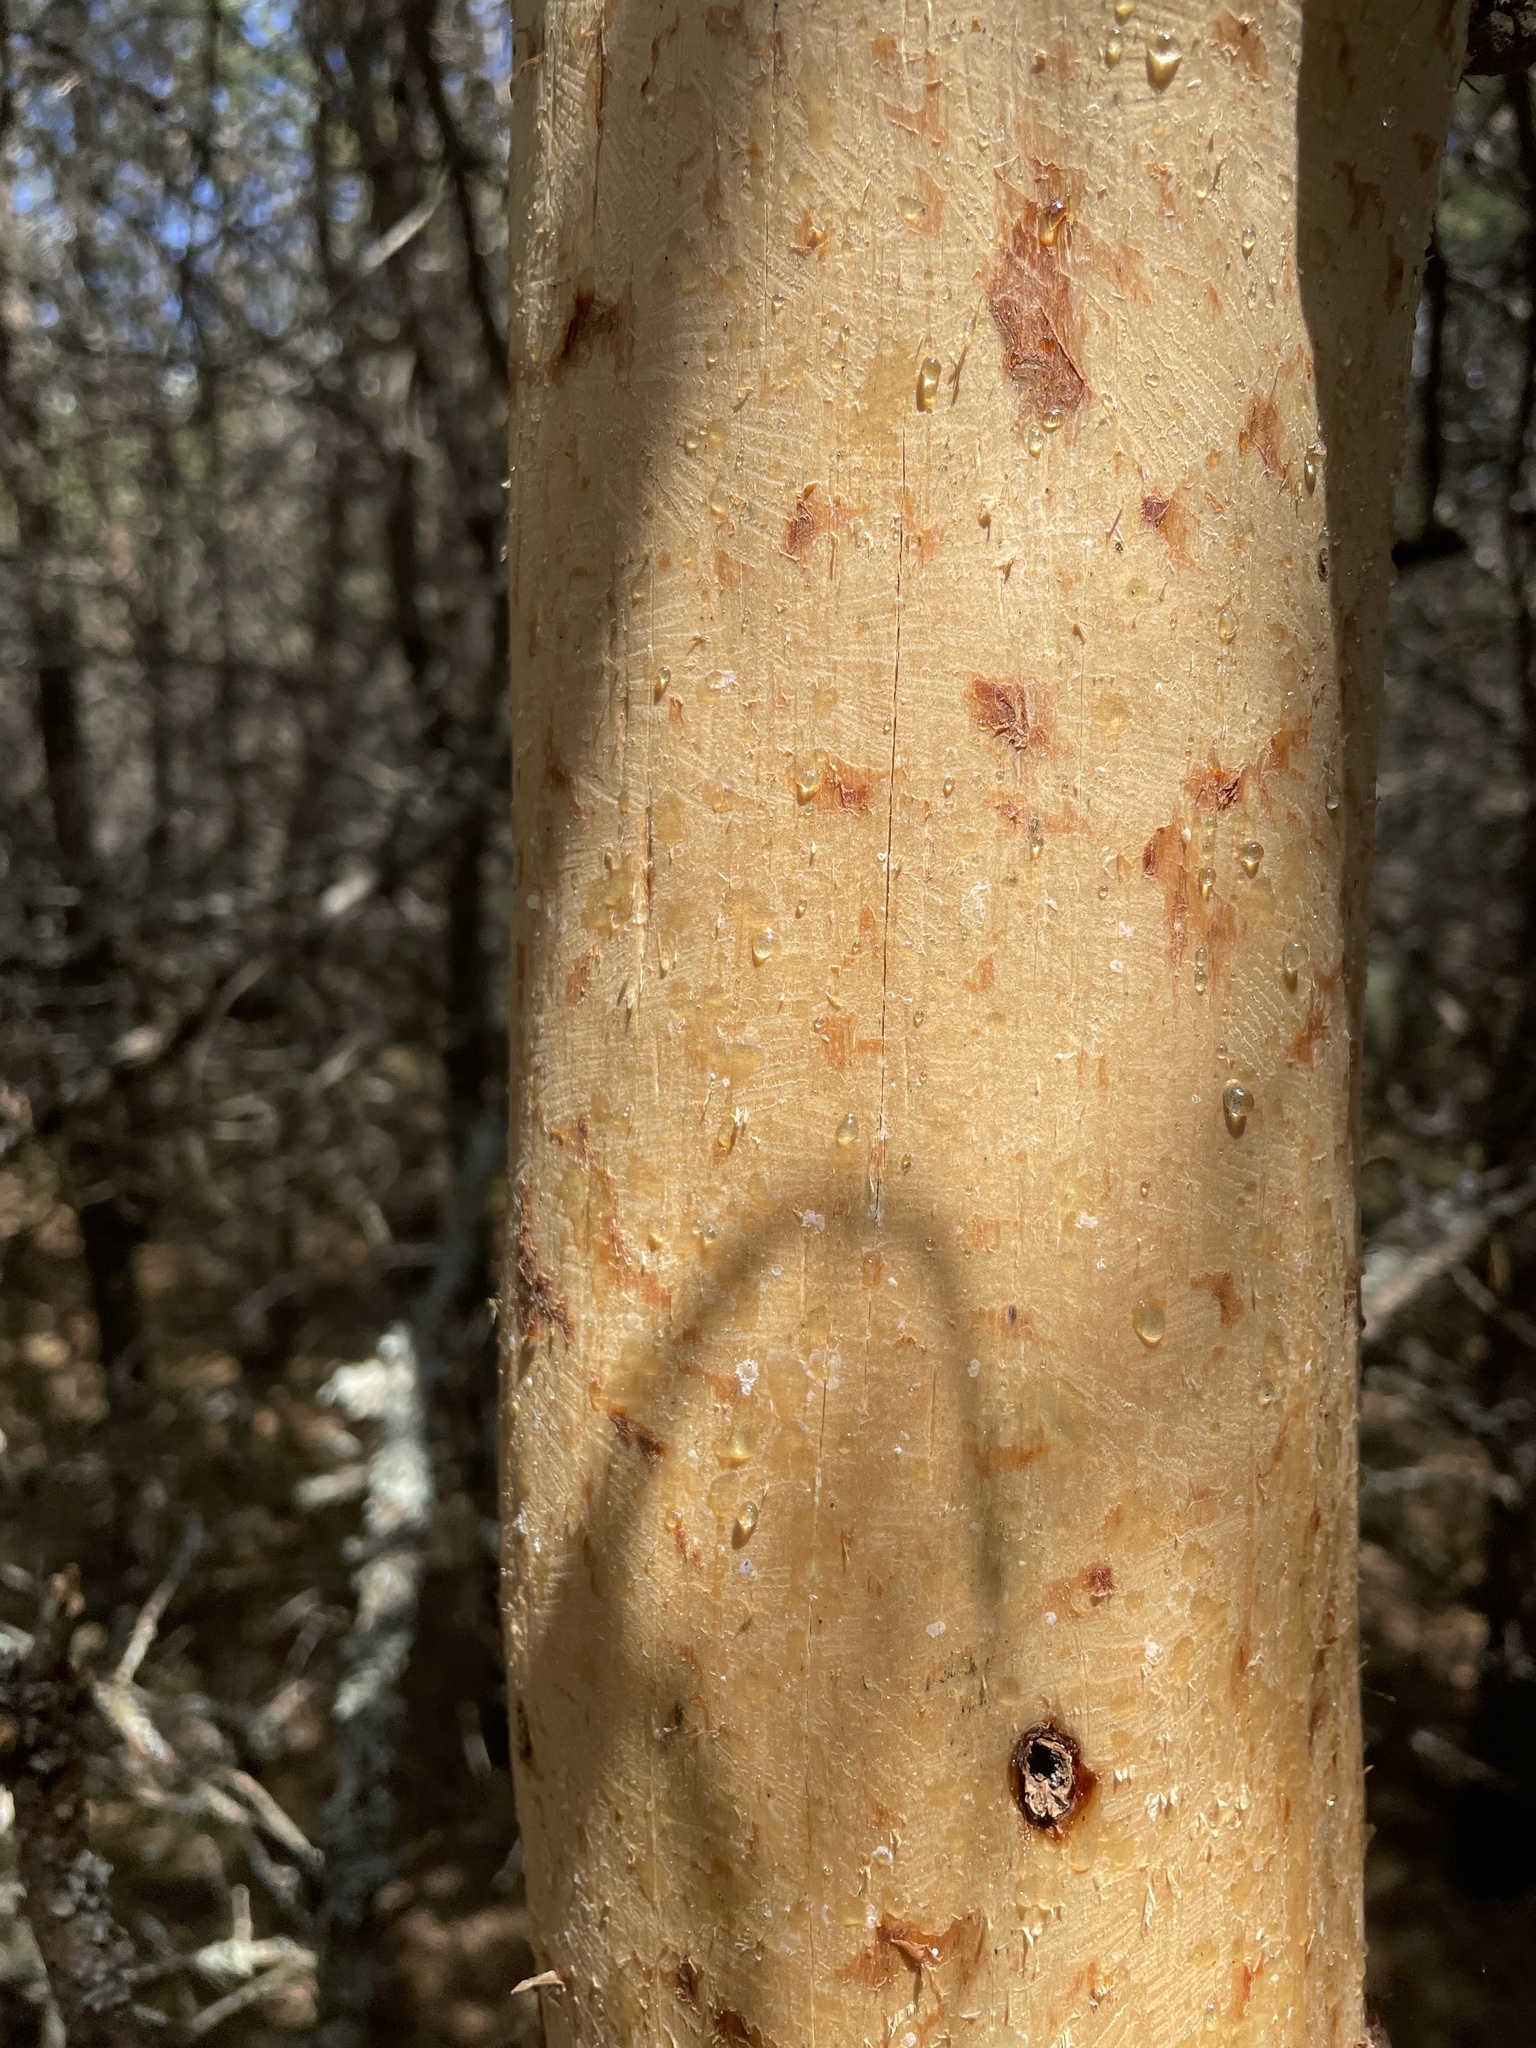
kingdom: Animalia
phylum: Chordata
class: Mammalia
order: Rodentia
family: Erethizontidae
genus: Erethizon
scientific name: Erethizon dorsatus
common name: North american porcupine
